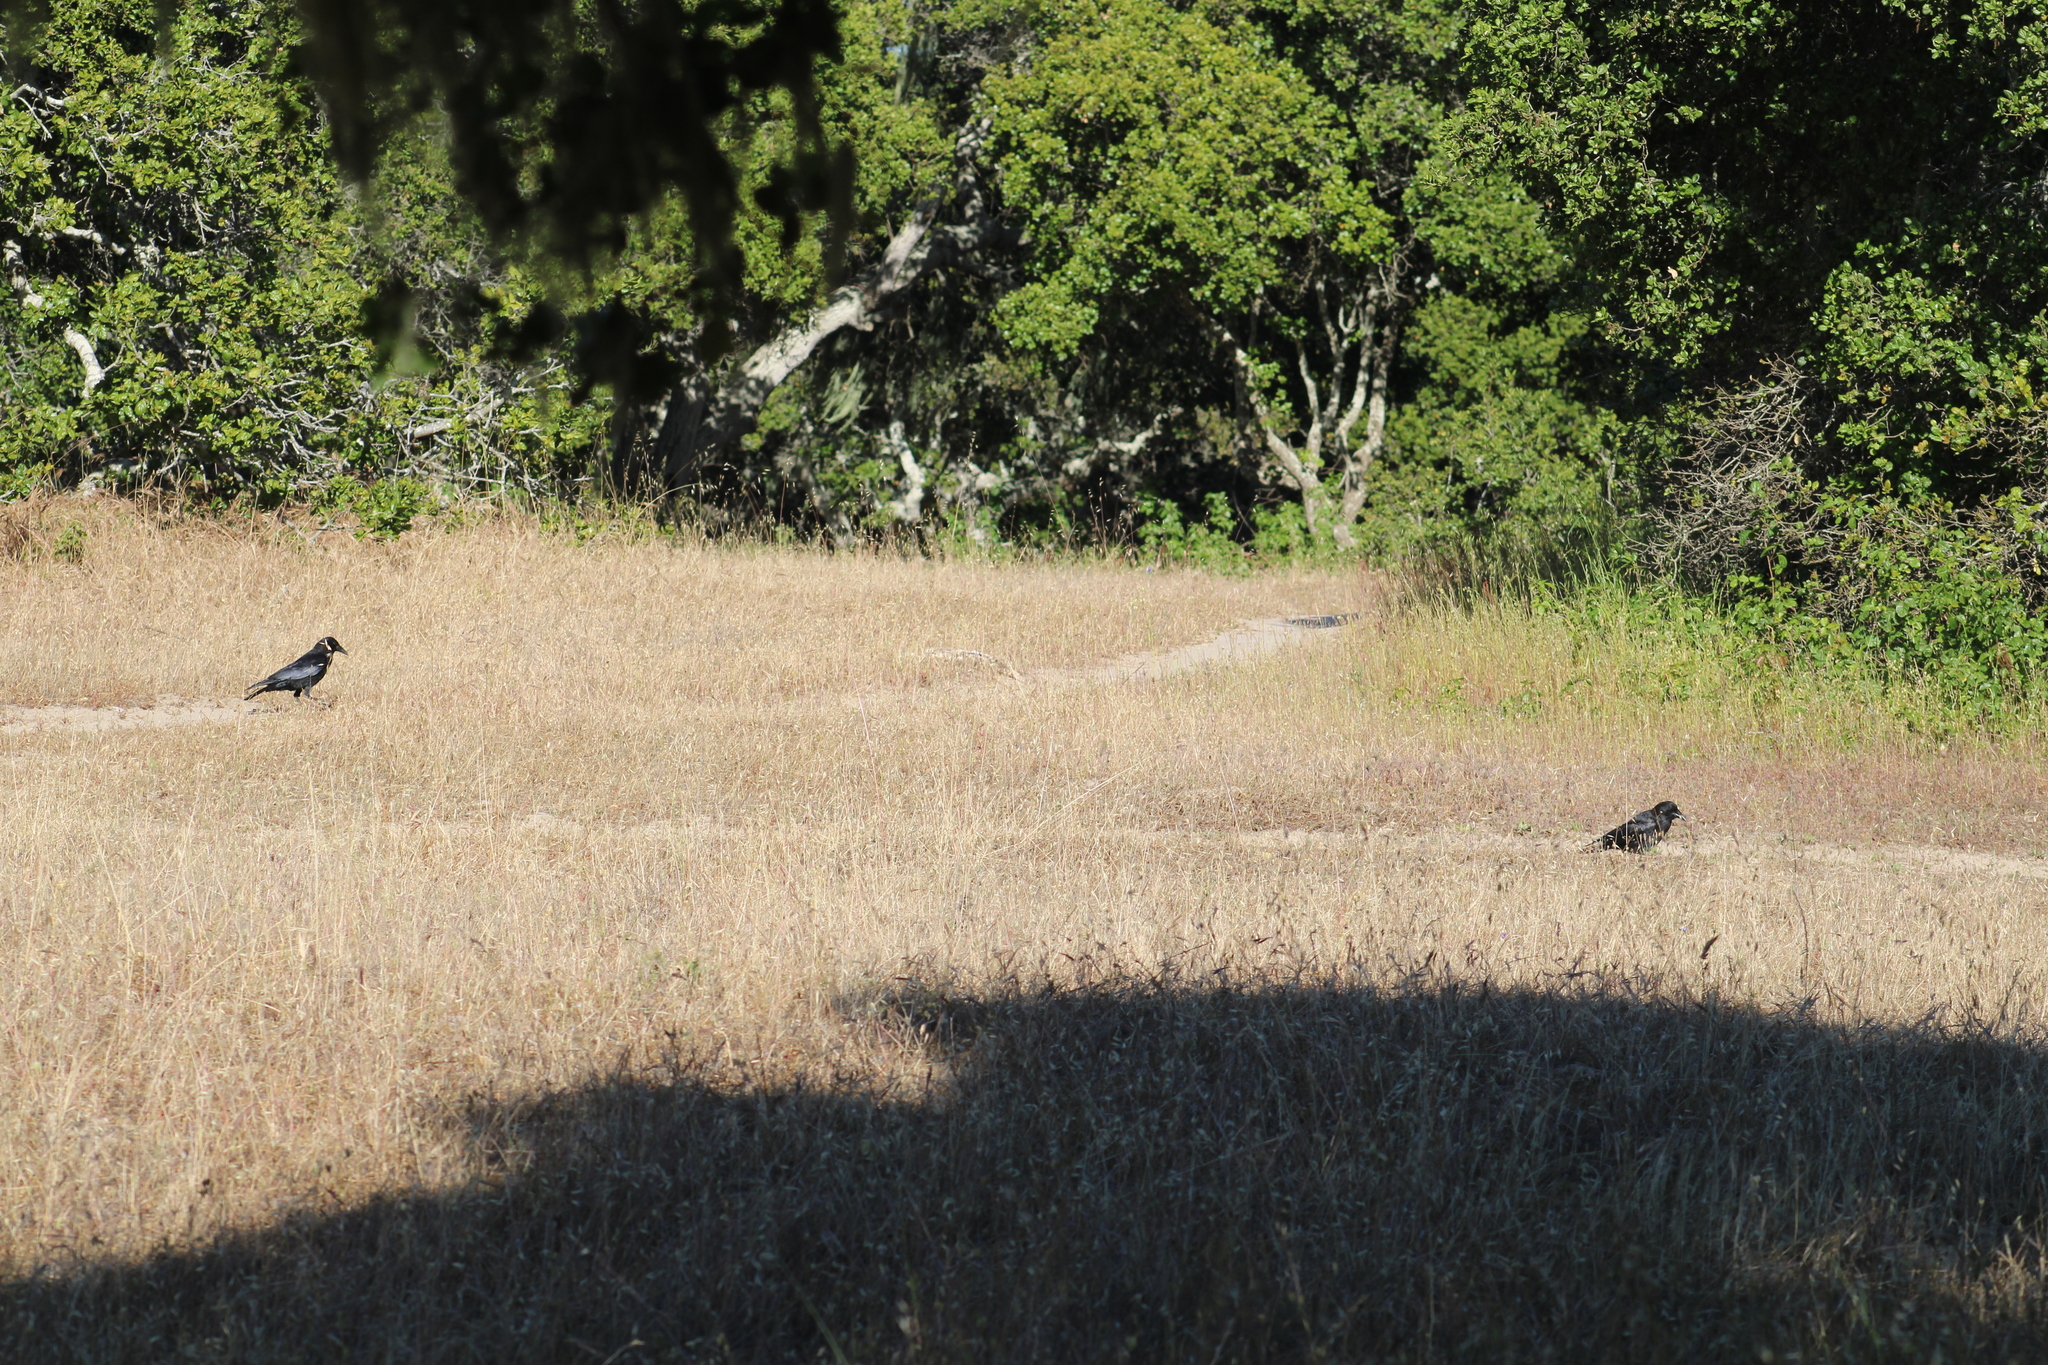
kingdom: Animalia
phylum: Chordata
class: Aves
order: Passeriformes
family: Corvidae
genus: Corvus
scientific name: Corvus brachyrhynchos
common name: American crow
